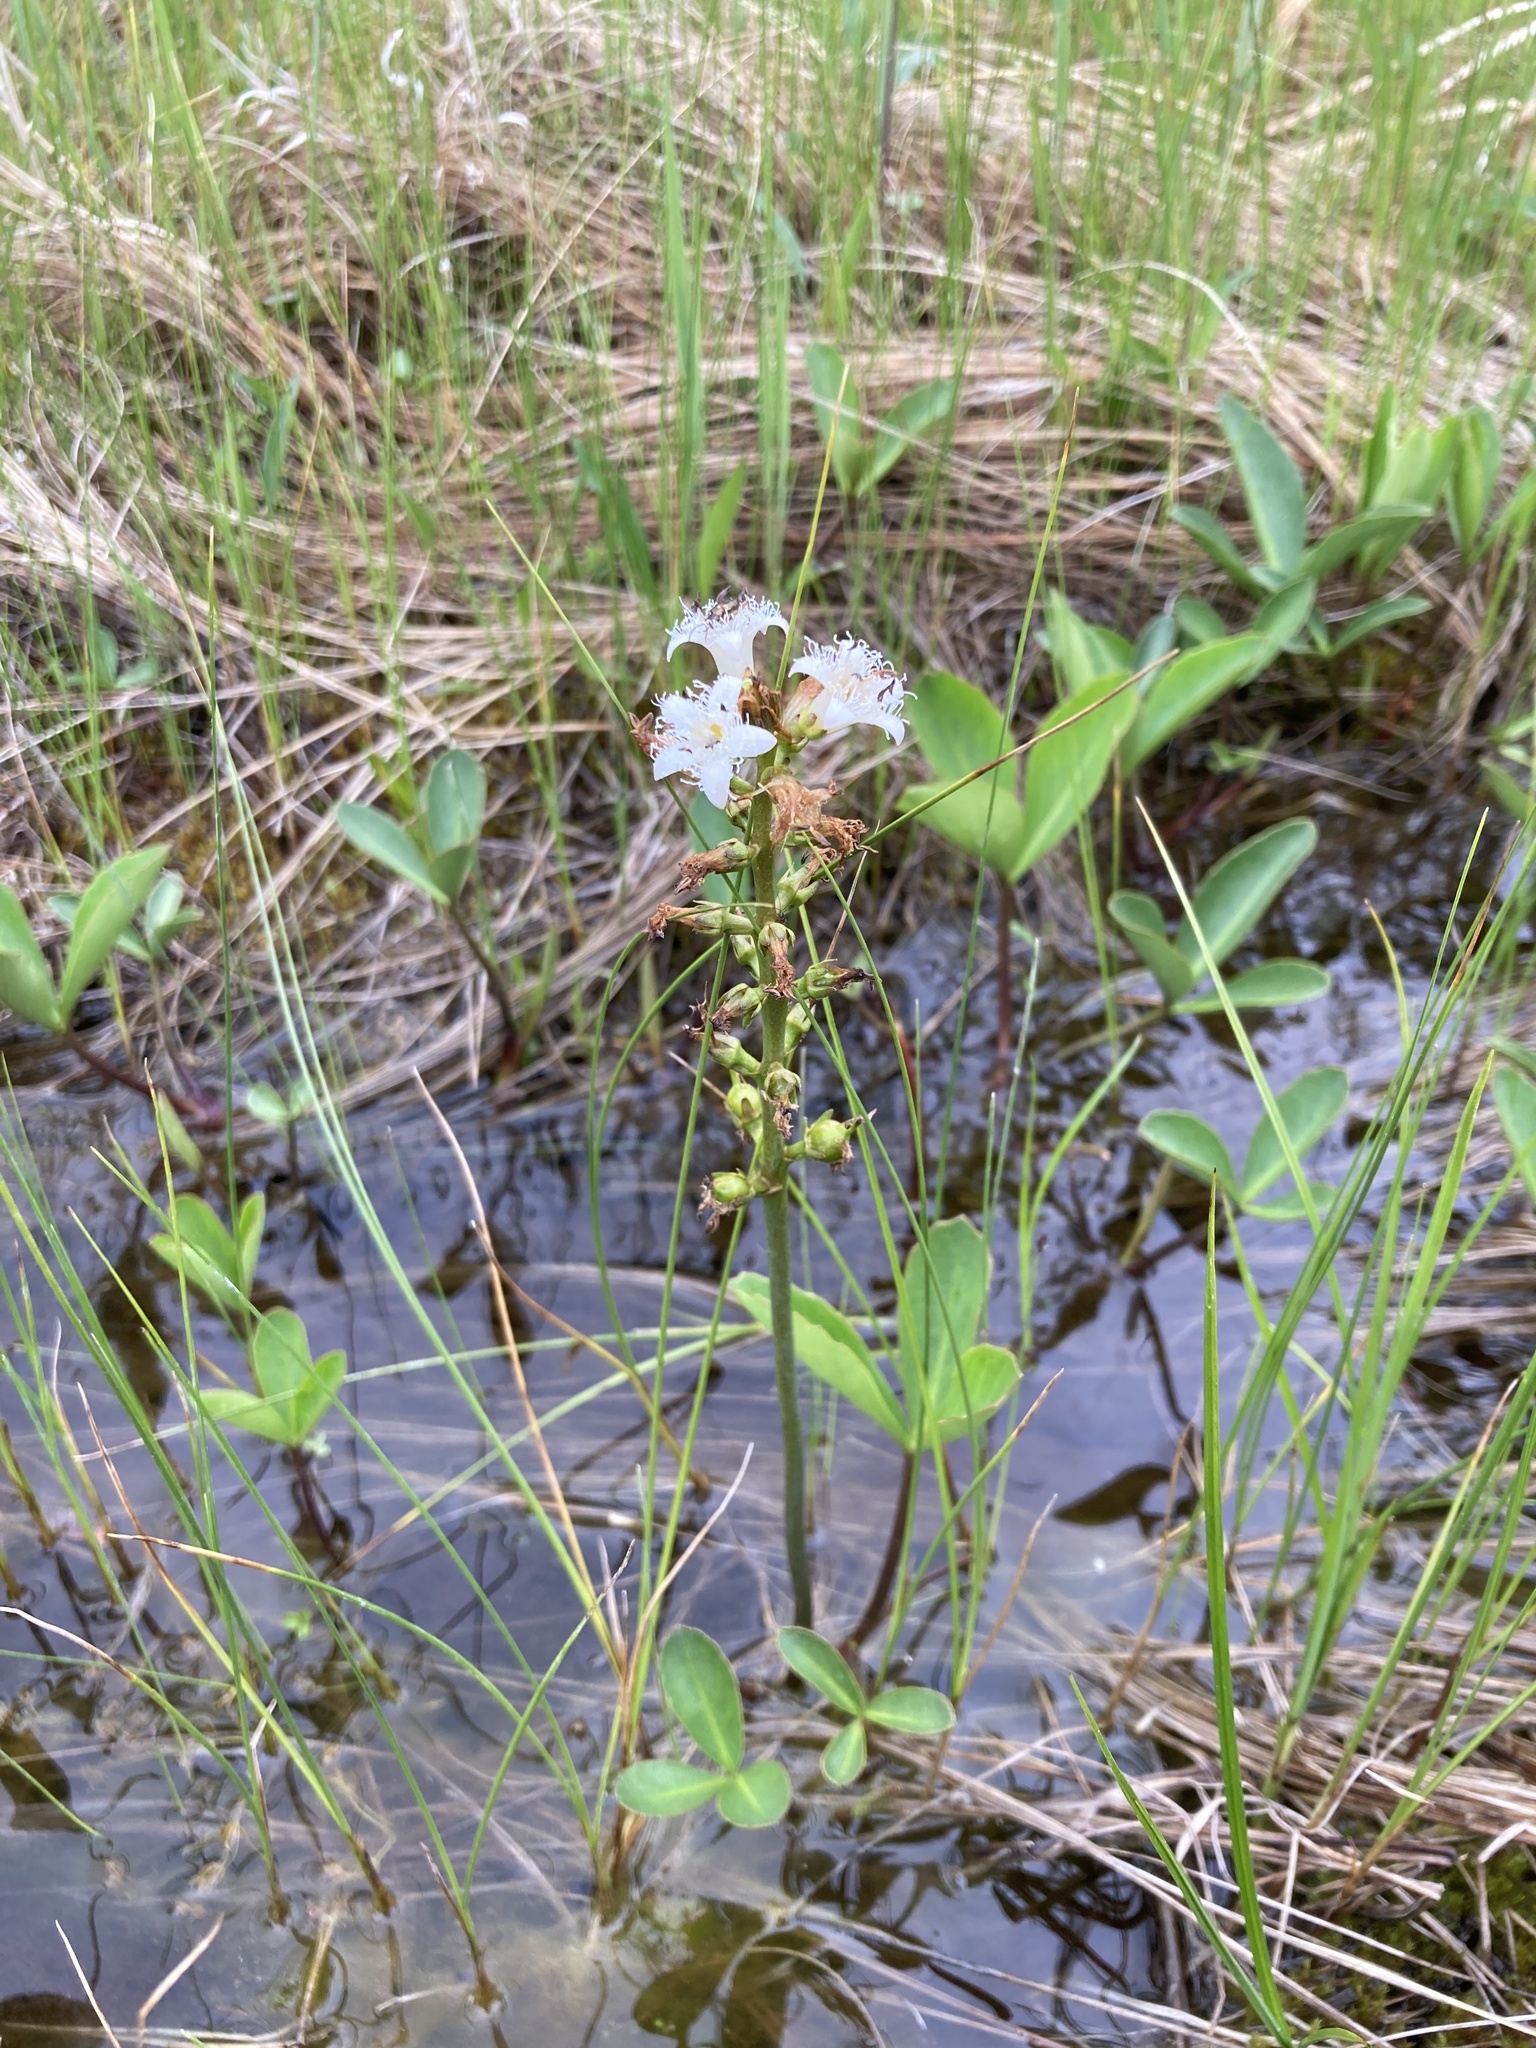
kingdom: Plantae
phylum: Tracheophyta
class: Magnoliopsida
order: Asterales
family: Menyanthaceae
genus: Menyanthes
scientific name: Menyanthes trifoliata
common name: Bogbean
